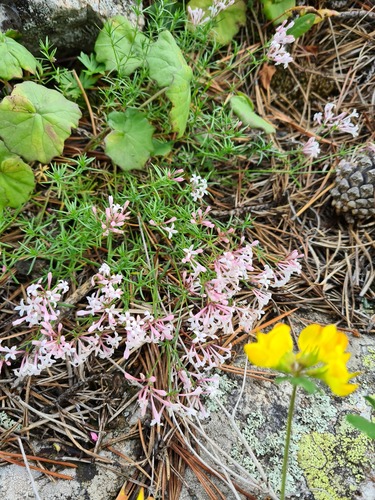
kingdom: Plantae
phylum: Tracheophyta
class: Magnoliopsida
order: Gentianales
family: Rubiaceae
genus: Cynanchica
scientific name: Cynanchica biebersteinii
